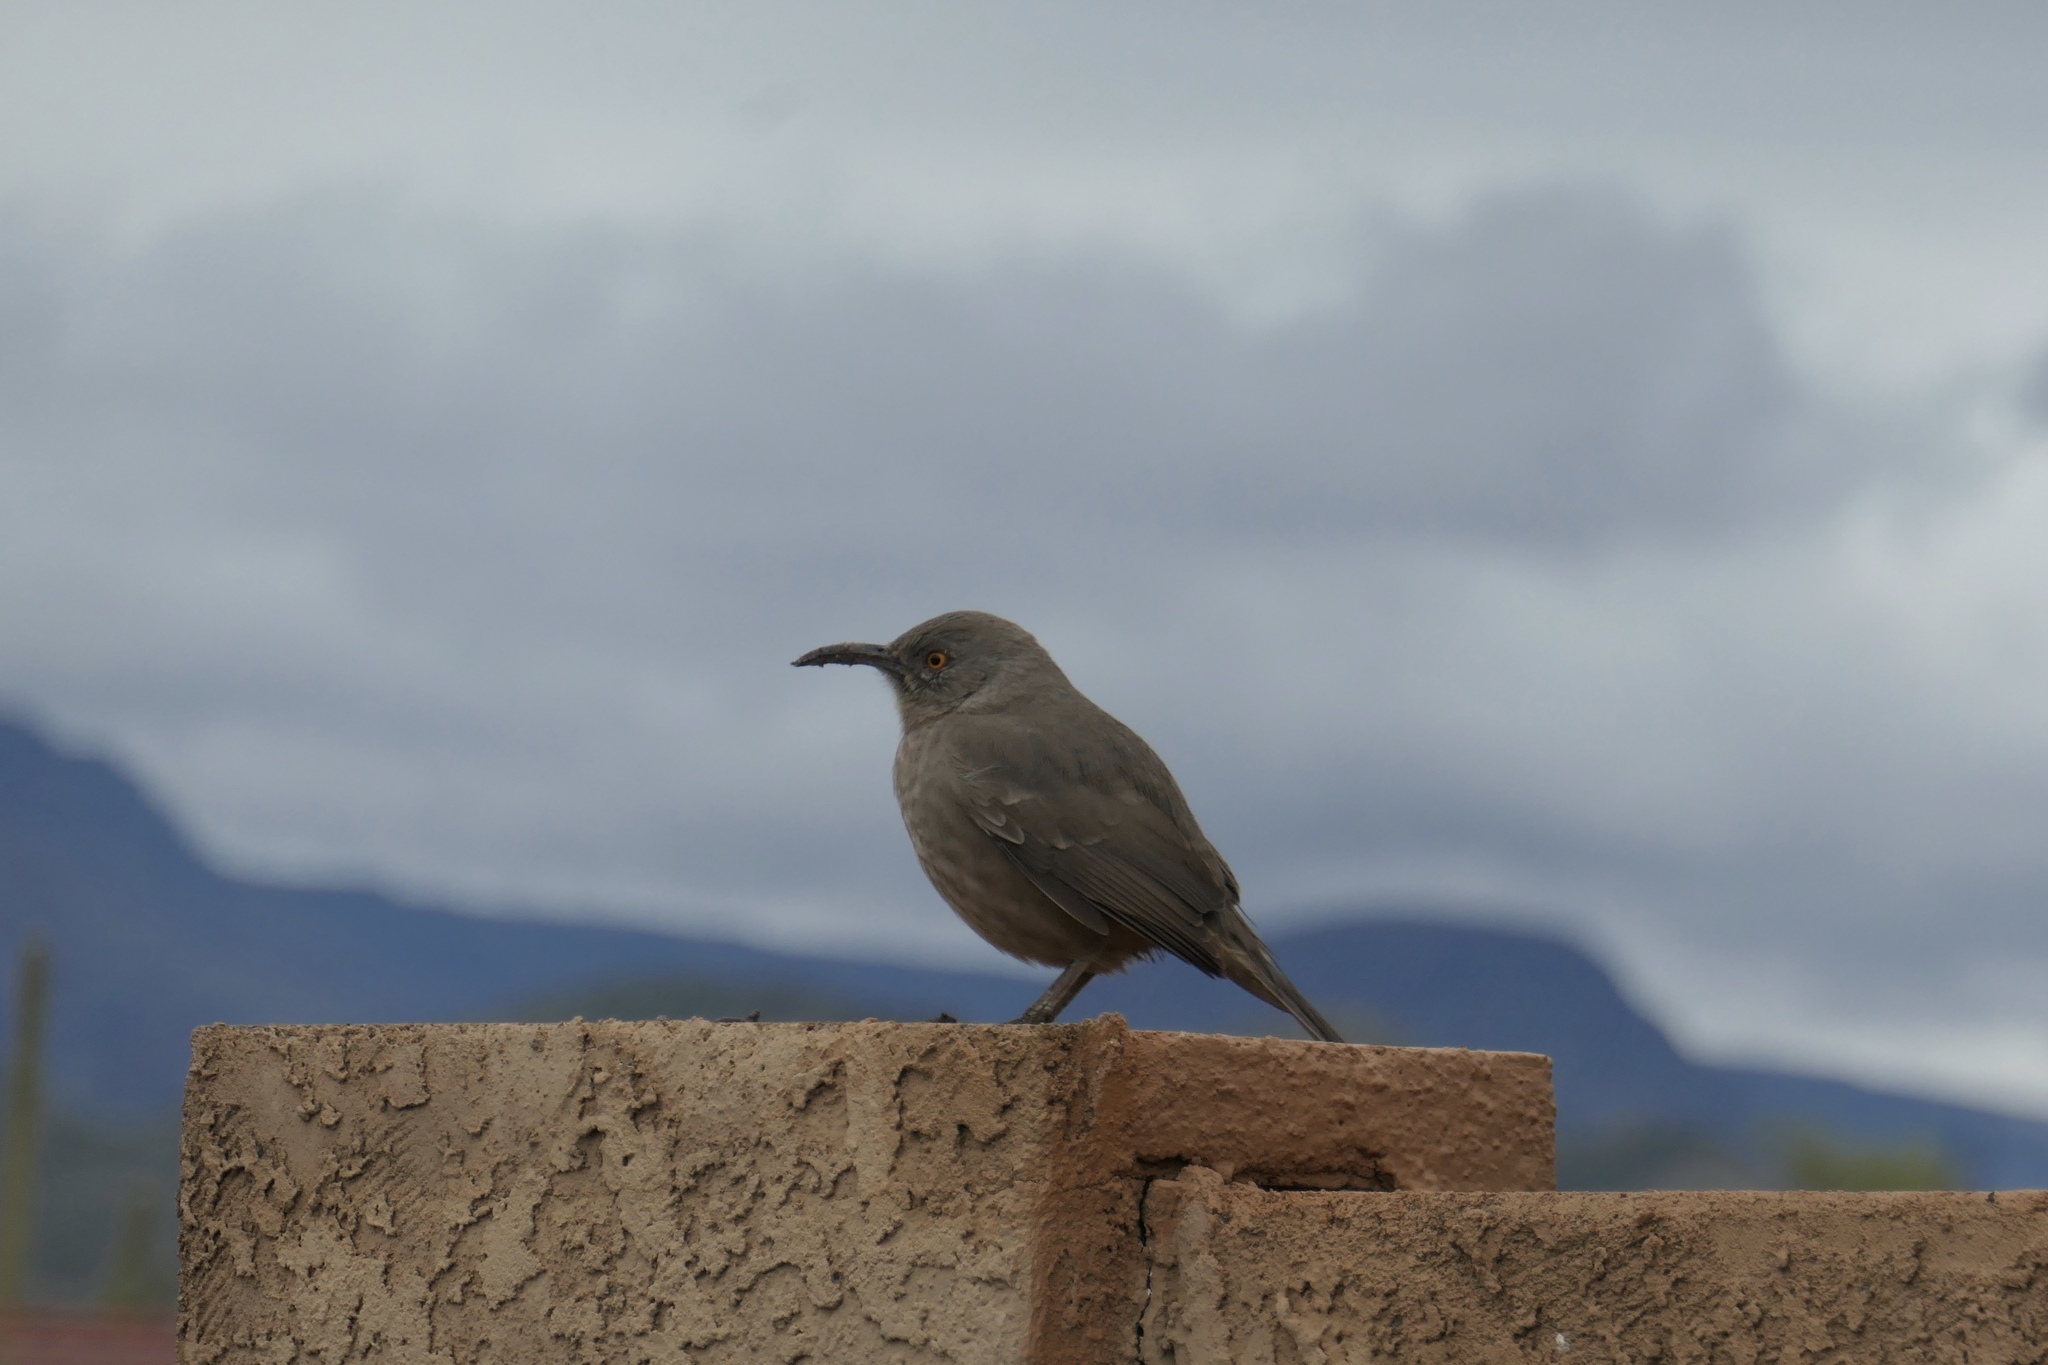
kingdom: Animalia
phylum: Chordata
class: Aves
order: Passeriformes
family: Mimidae
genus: Toxostoma
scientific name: Toxostoma curvirostre
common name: Curve-billed thrasher
